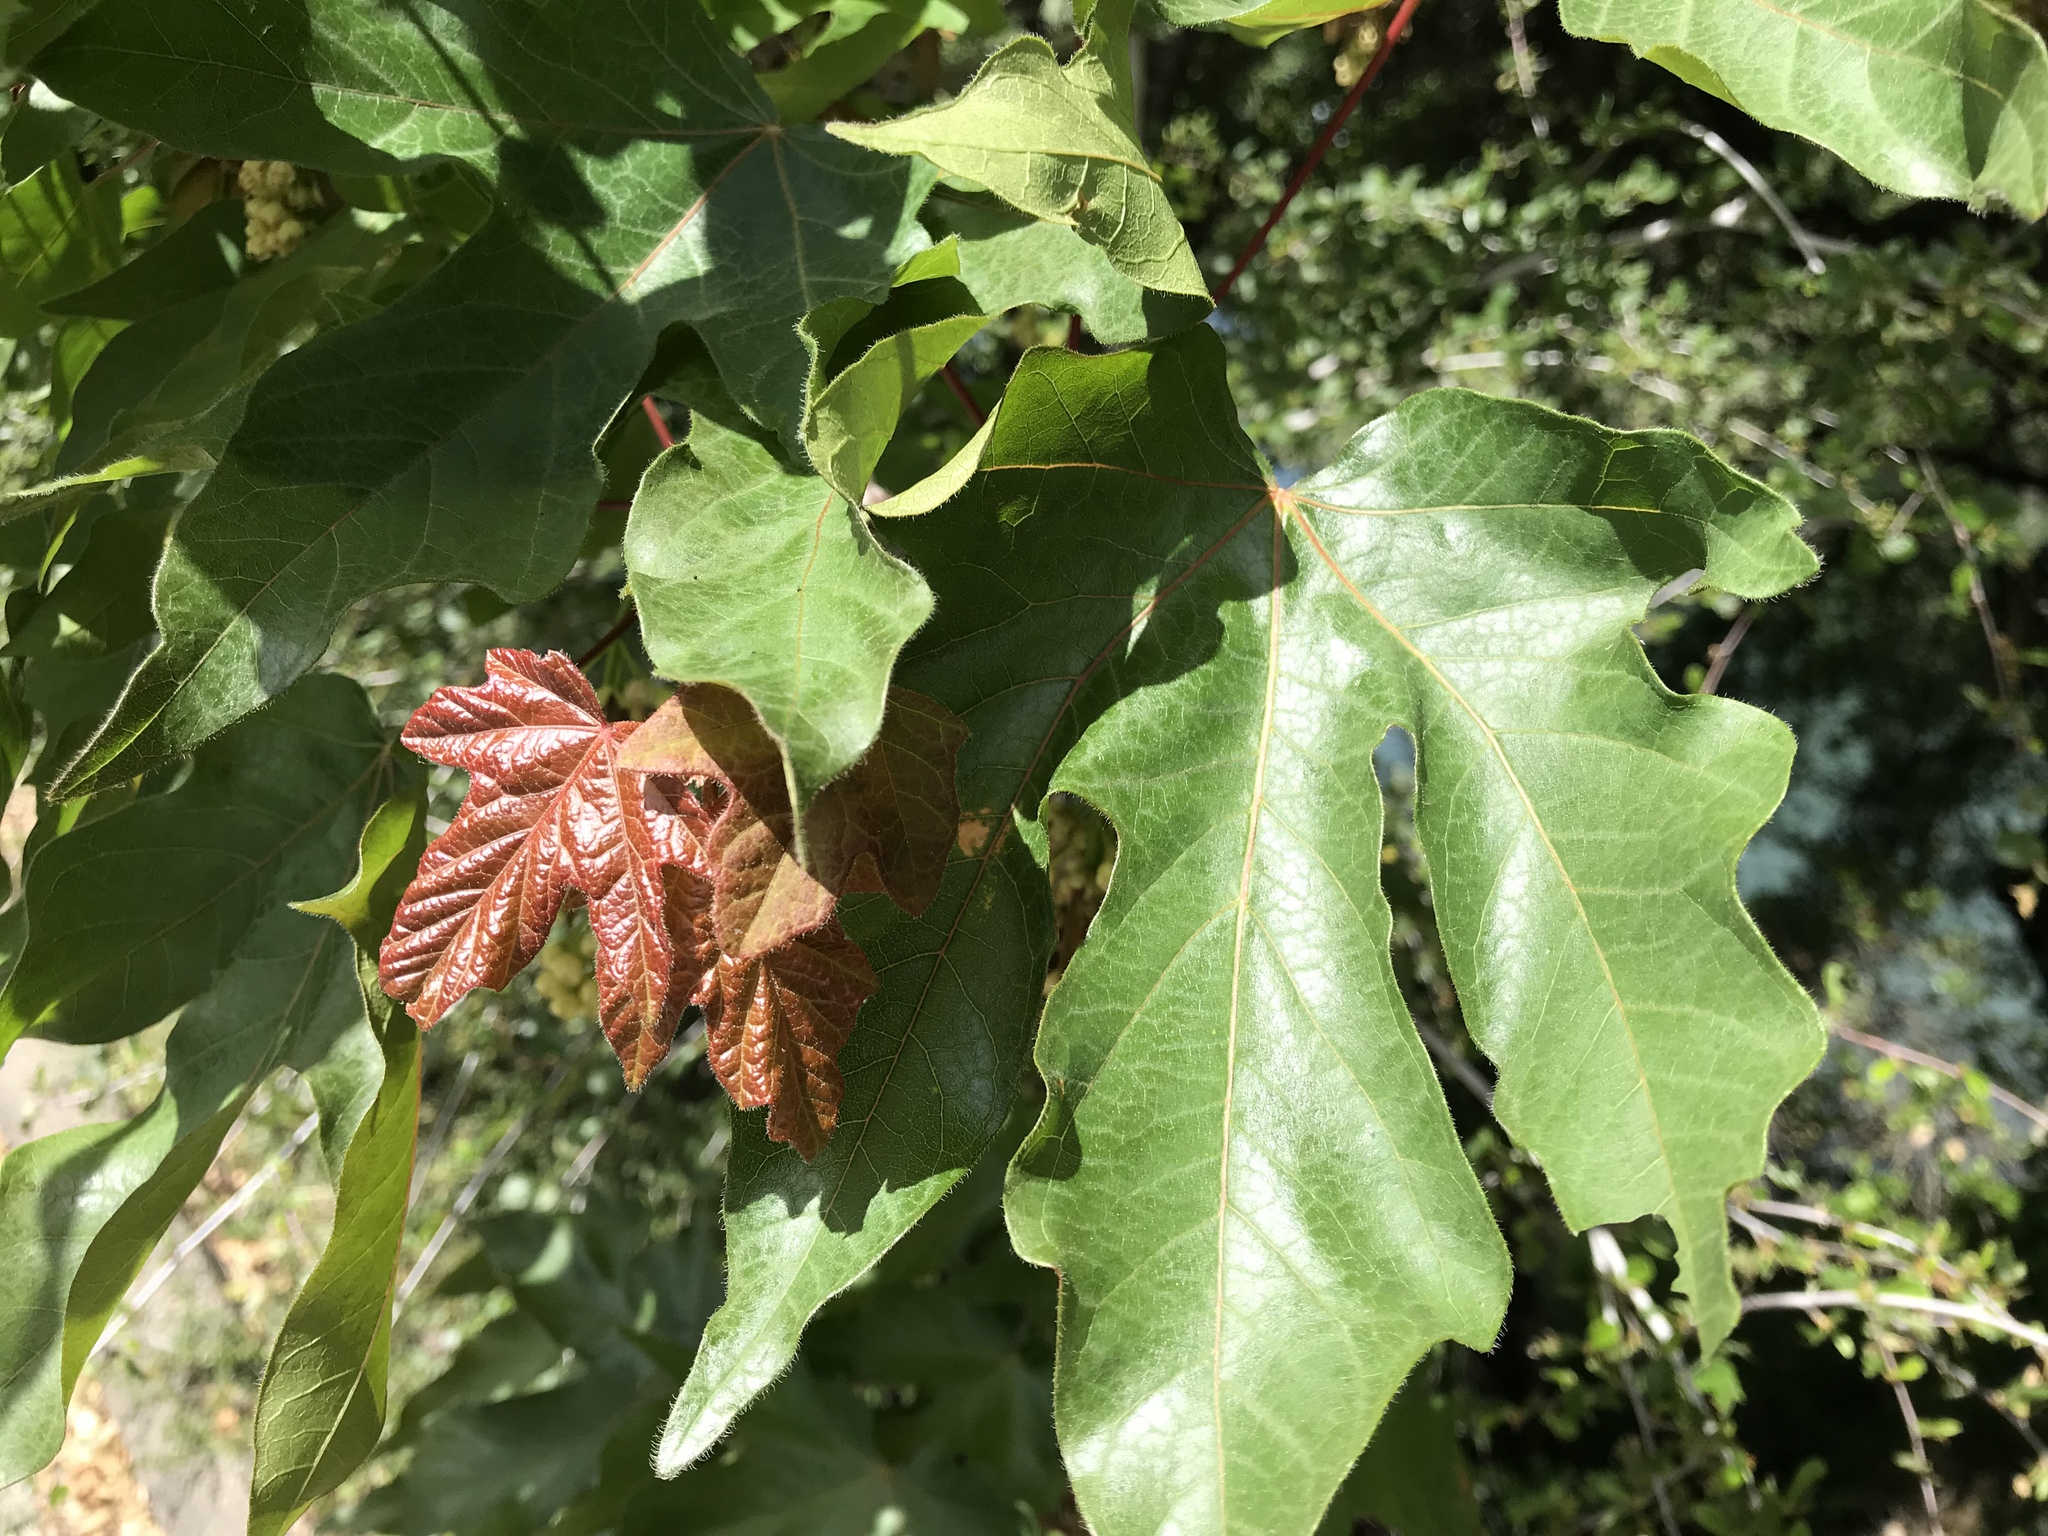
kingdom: Plantae
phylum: Tracheophyta
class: Magnoliopsida
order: Sapindales
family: Sapindaceae
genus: Acer
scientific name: Acer macrophyllum
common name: Oregon maple
